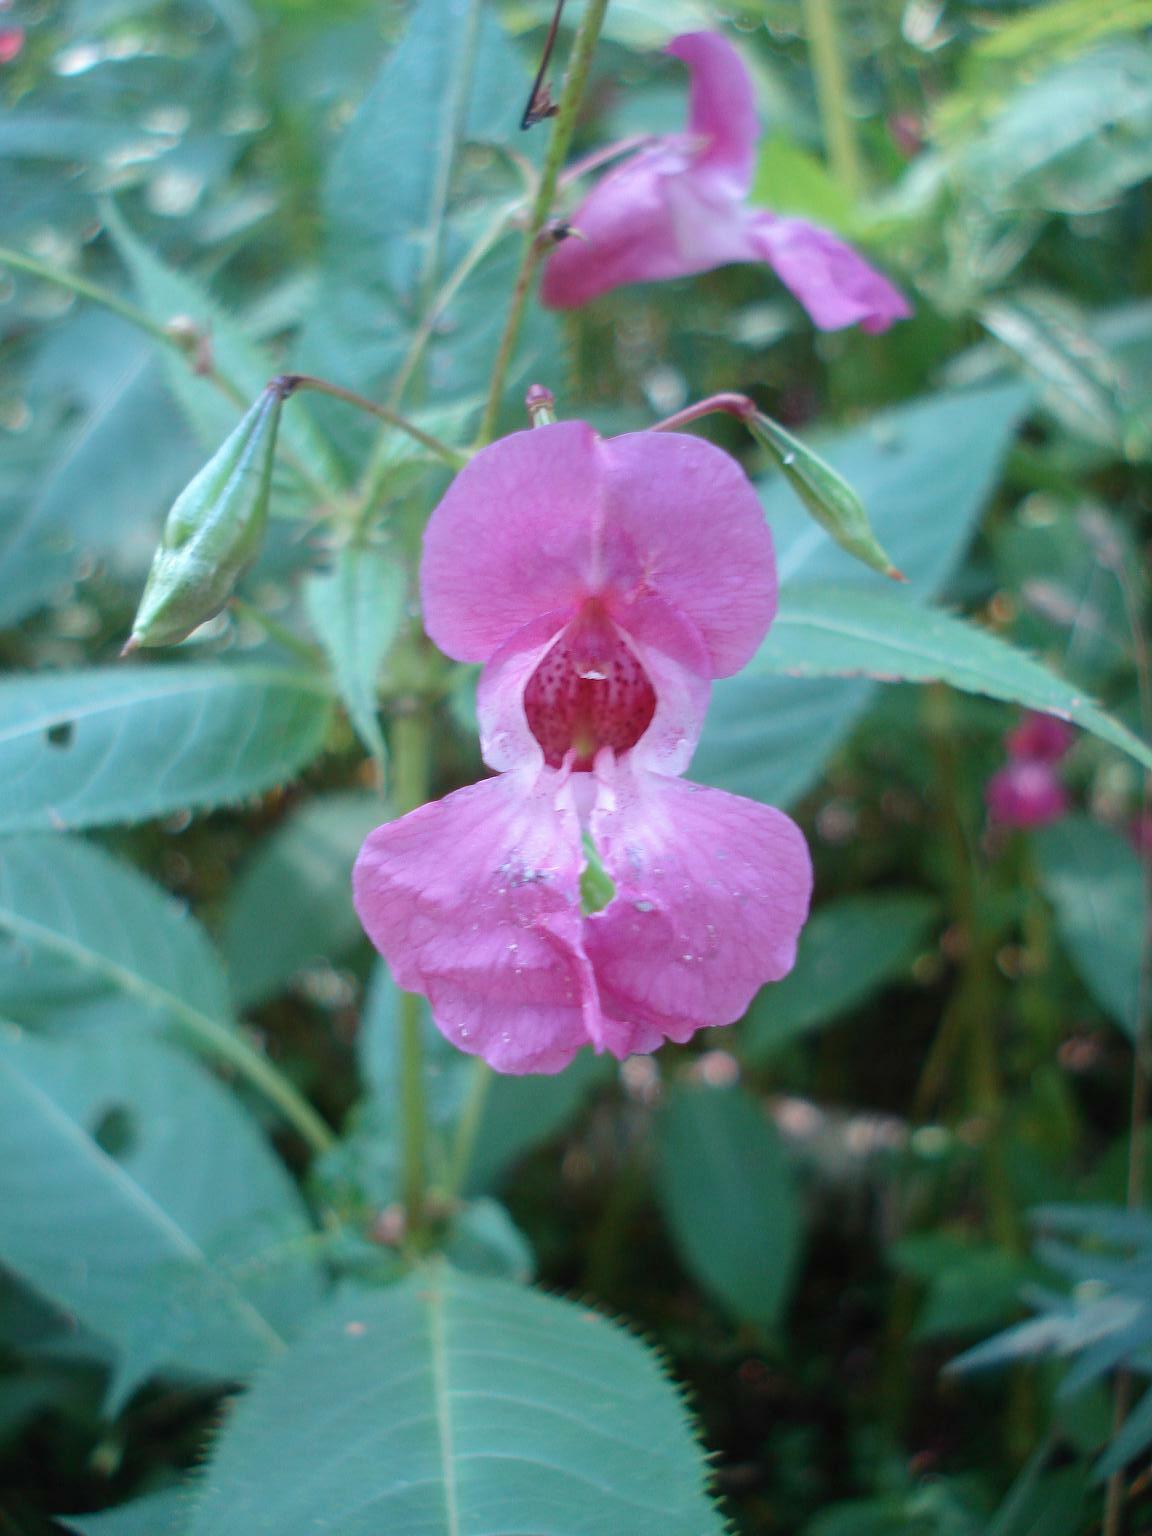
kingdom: Plantae
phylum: Tracheophyta
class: Magnoliopsida
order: Ericales
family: Balsaminaceae
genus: Impatiens
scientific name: Impatiens glandulifera
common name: Himalayan balsam
